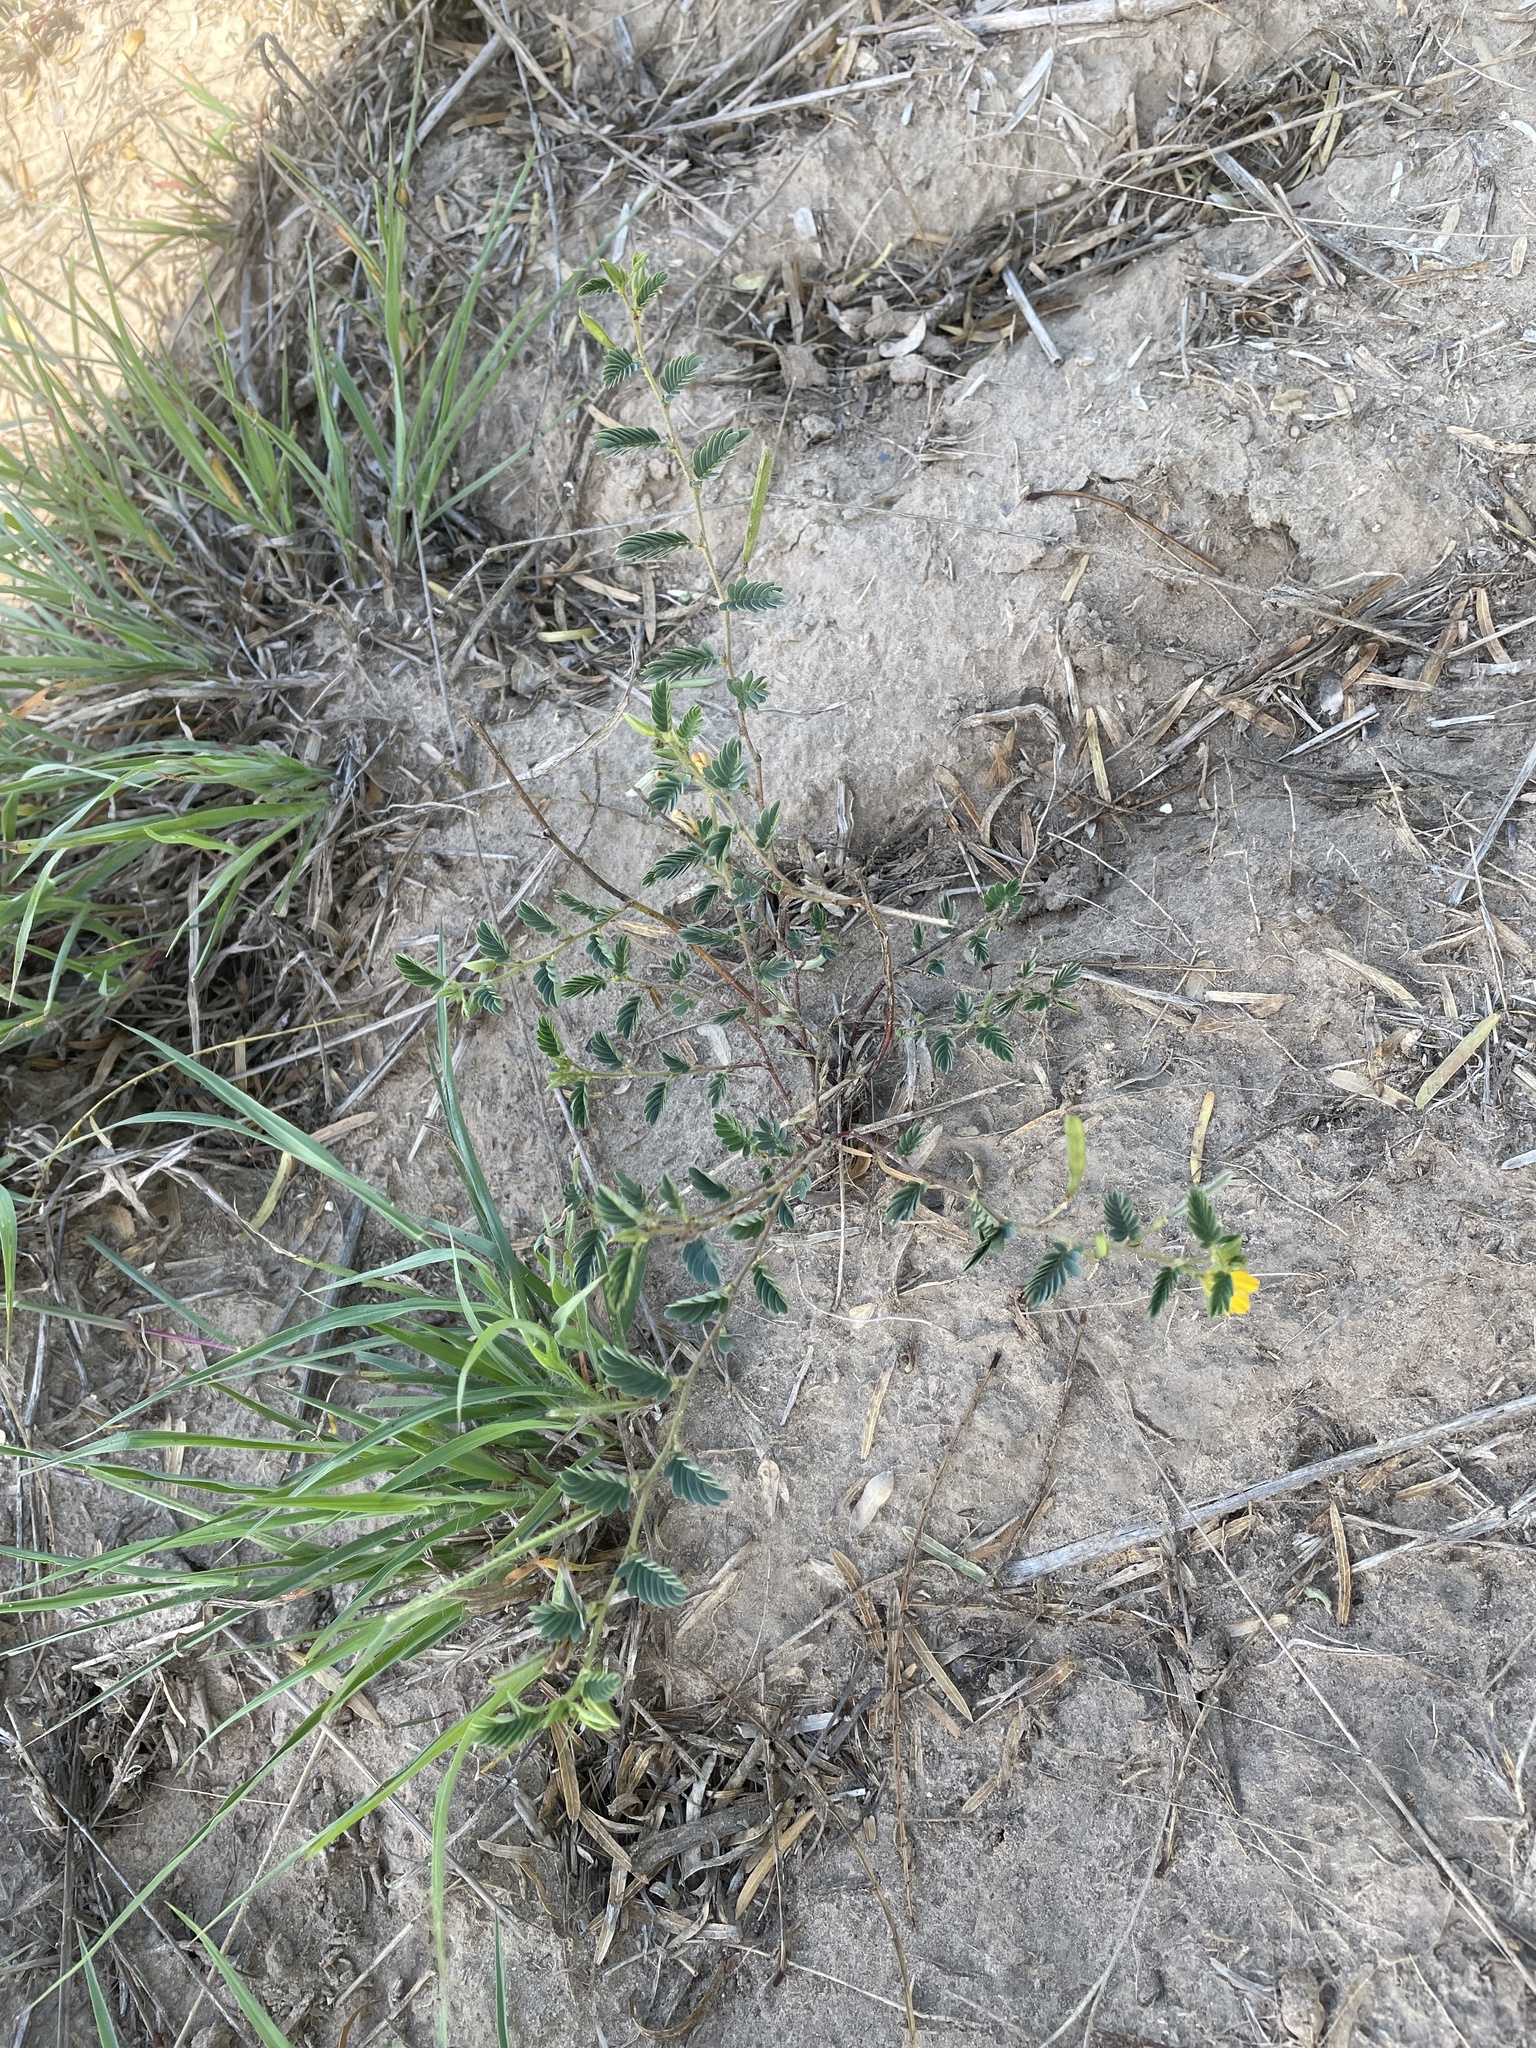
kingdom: Plantae
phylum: Tracheophyta
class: Magnoliopsida
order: Fabales
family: Fabaceae
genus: Chamaecrista
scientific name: Chamaecrista fasciculata
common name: Golden cassia
